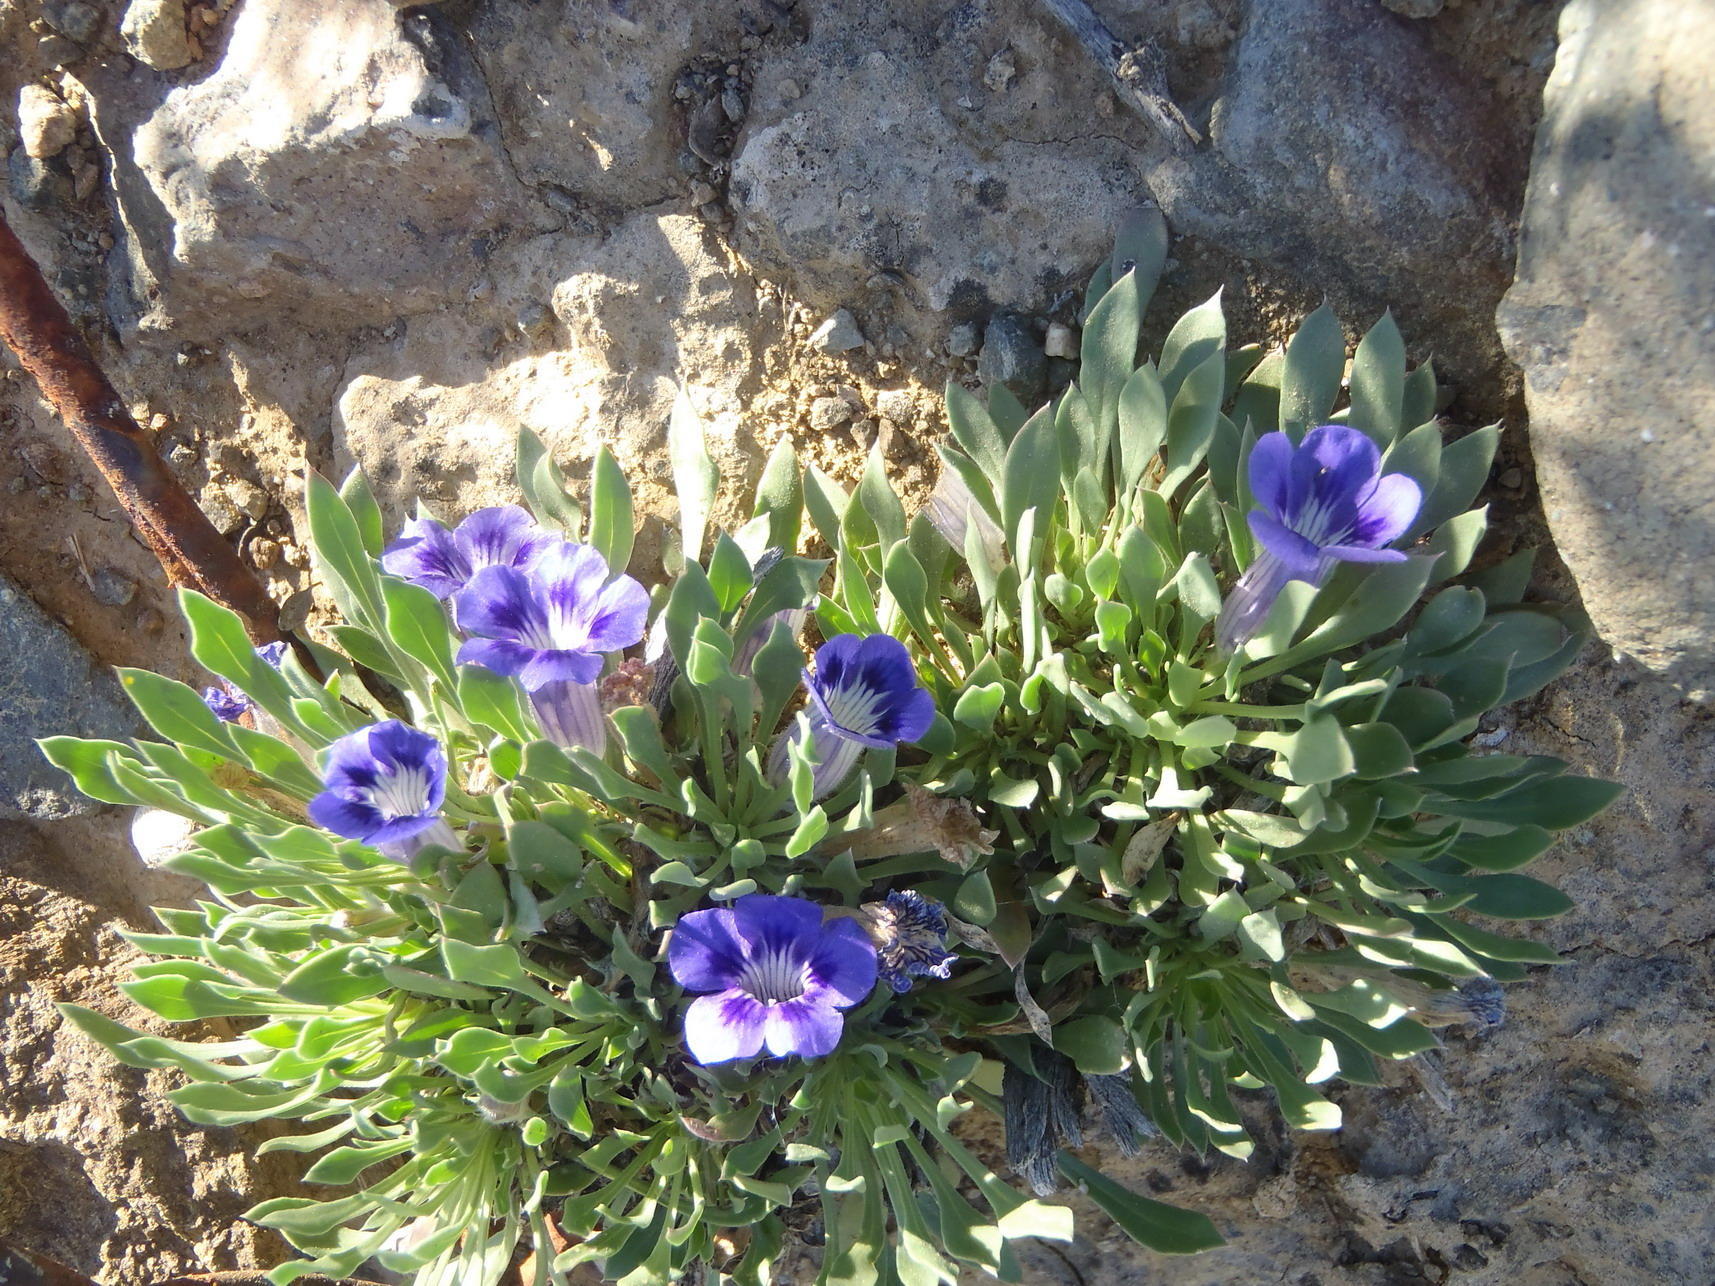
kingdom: Plantae
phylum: Tracheophyta
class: Magnoliopsida
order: Lamiales
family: Scrophulariaceae
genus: Aptosimum
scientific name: Aptosimum indivisum
